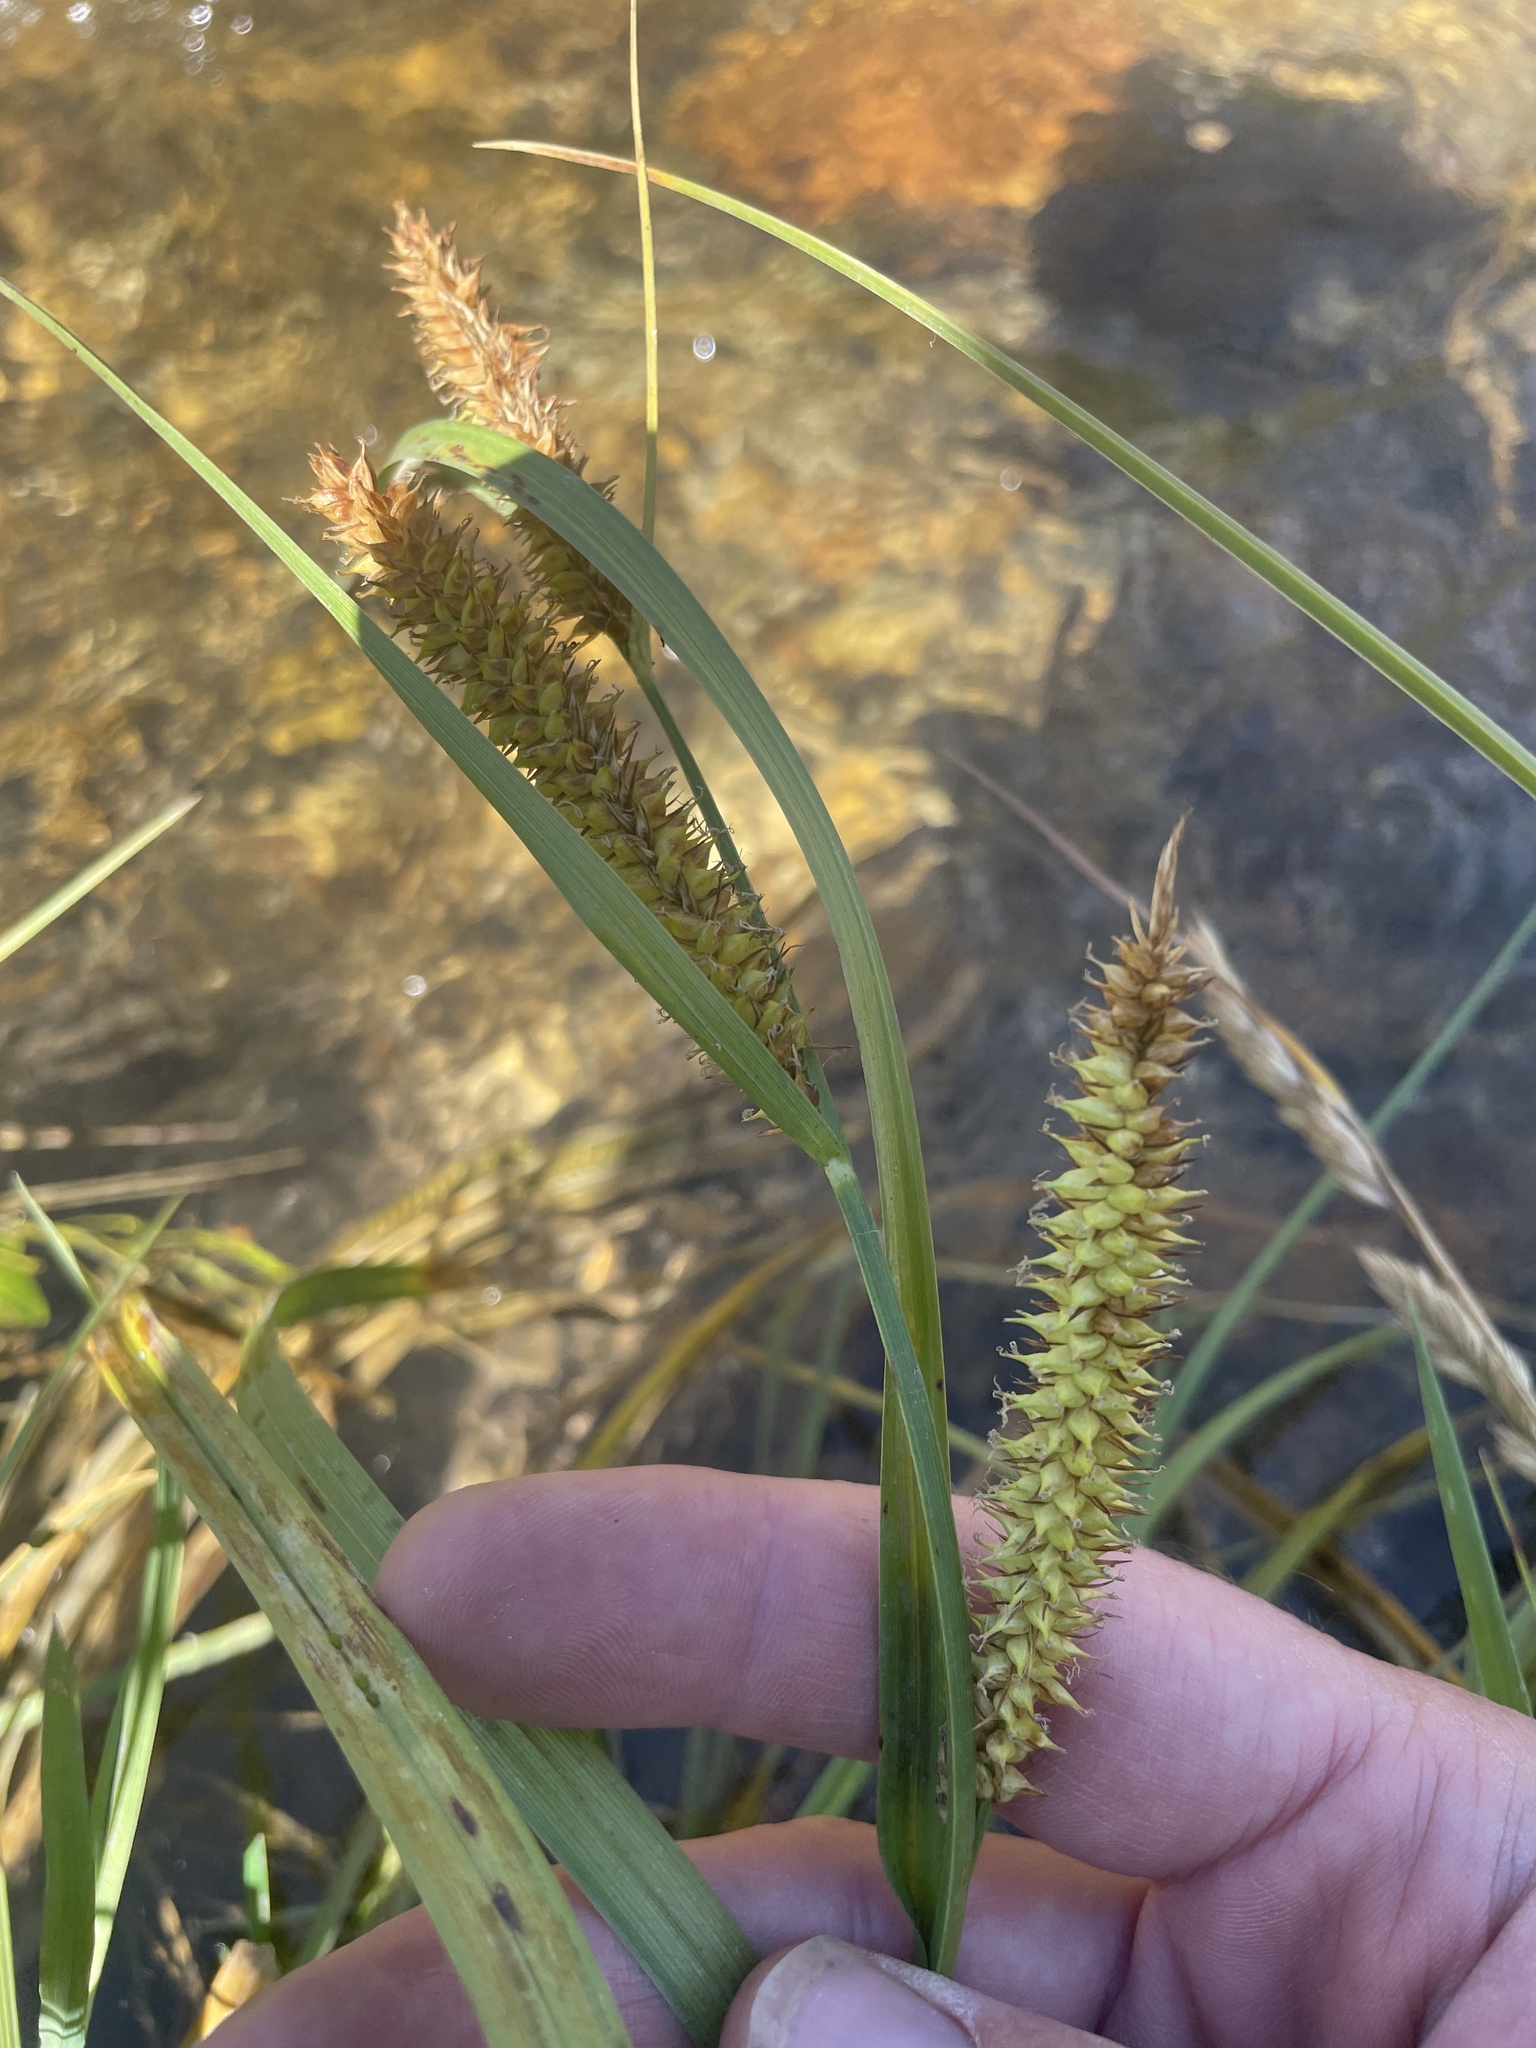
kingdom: Plantae
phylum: Tracheophyta
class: Liliopsida
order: Poales
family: Cyperaceae
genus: Carex
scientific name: Carex utriculata
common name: Beaked sedge
